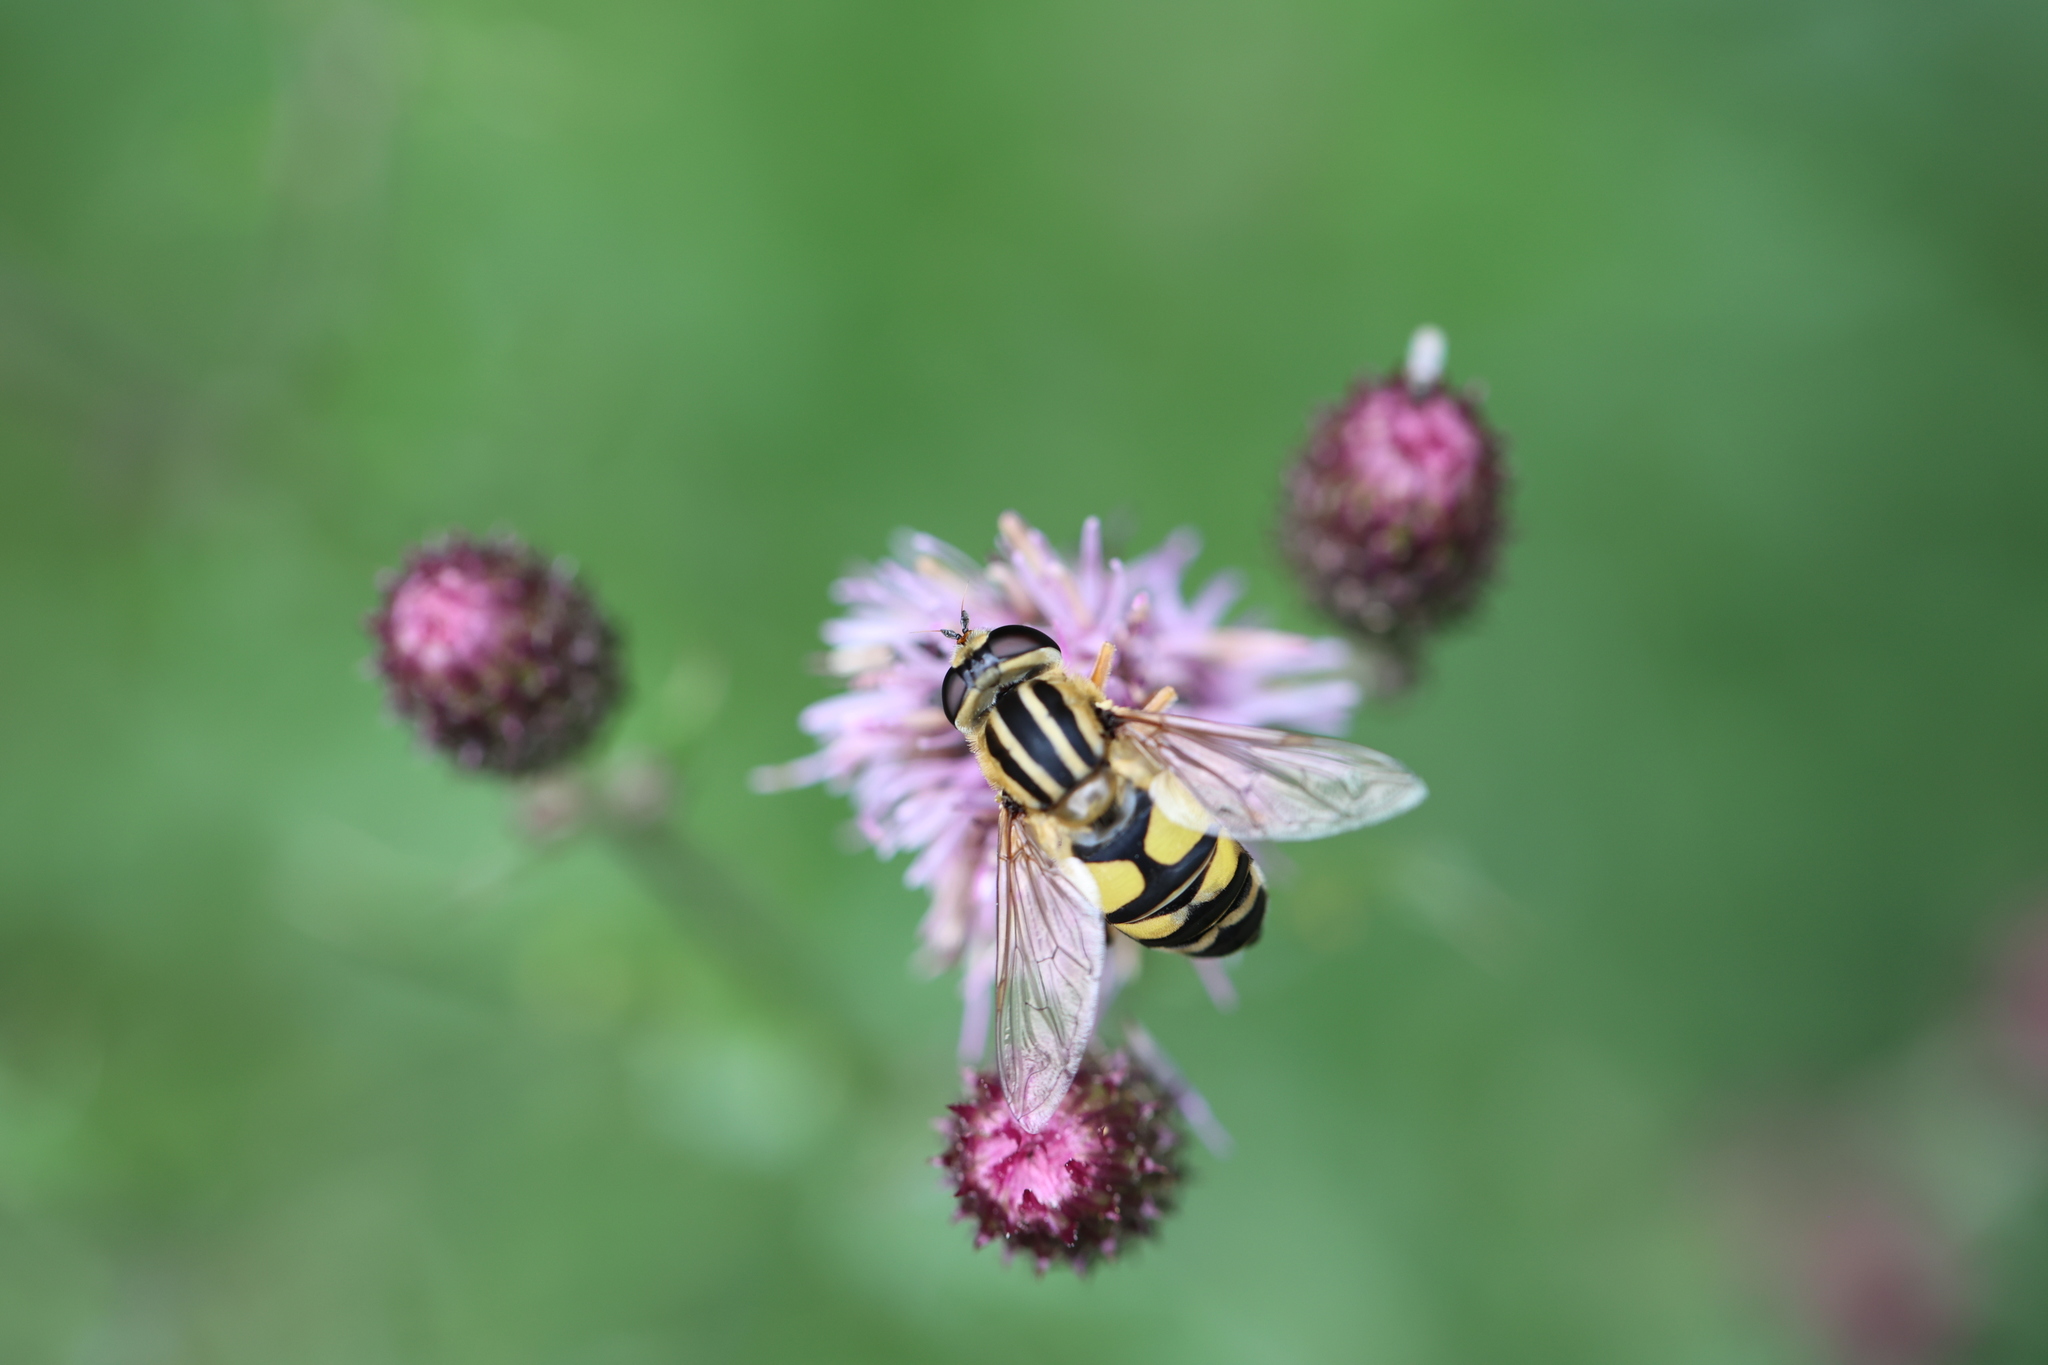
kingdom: Animalia
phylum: Arthropoda
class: Insecta
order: Diptera
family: Syrphidae
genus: Helophilus
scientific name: Helophilus trivittatus
